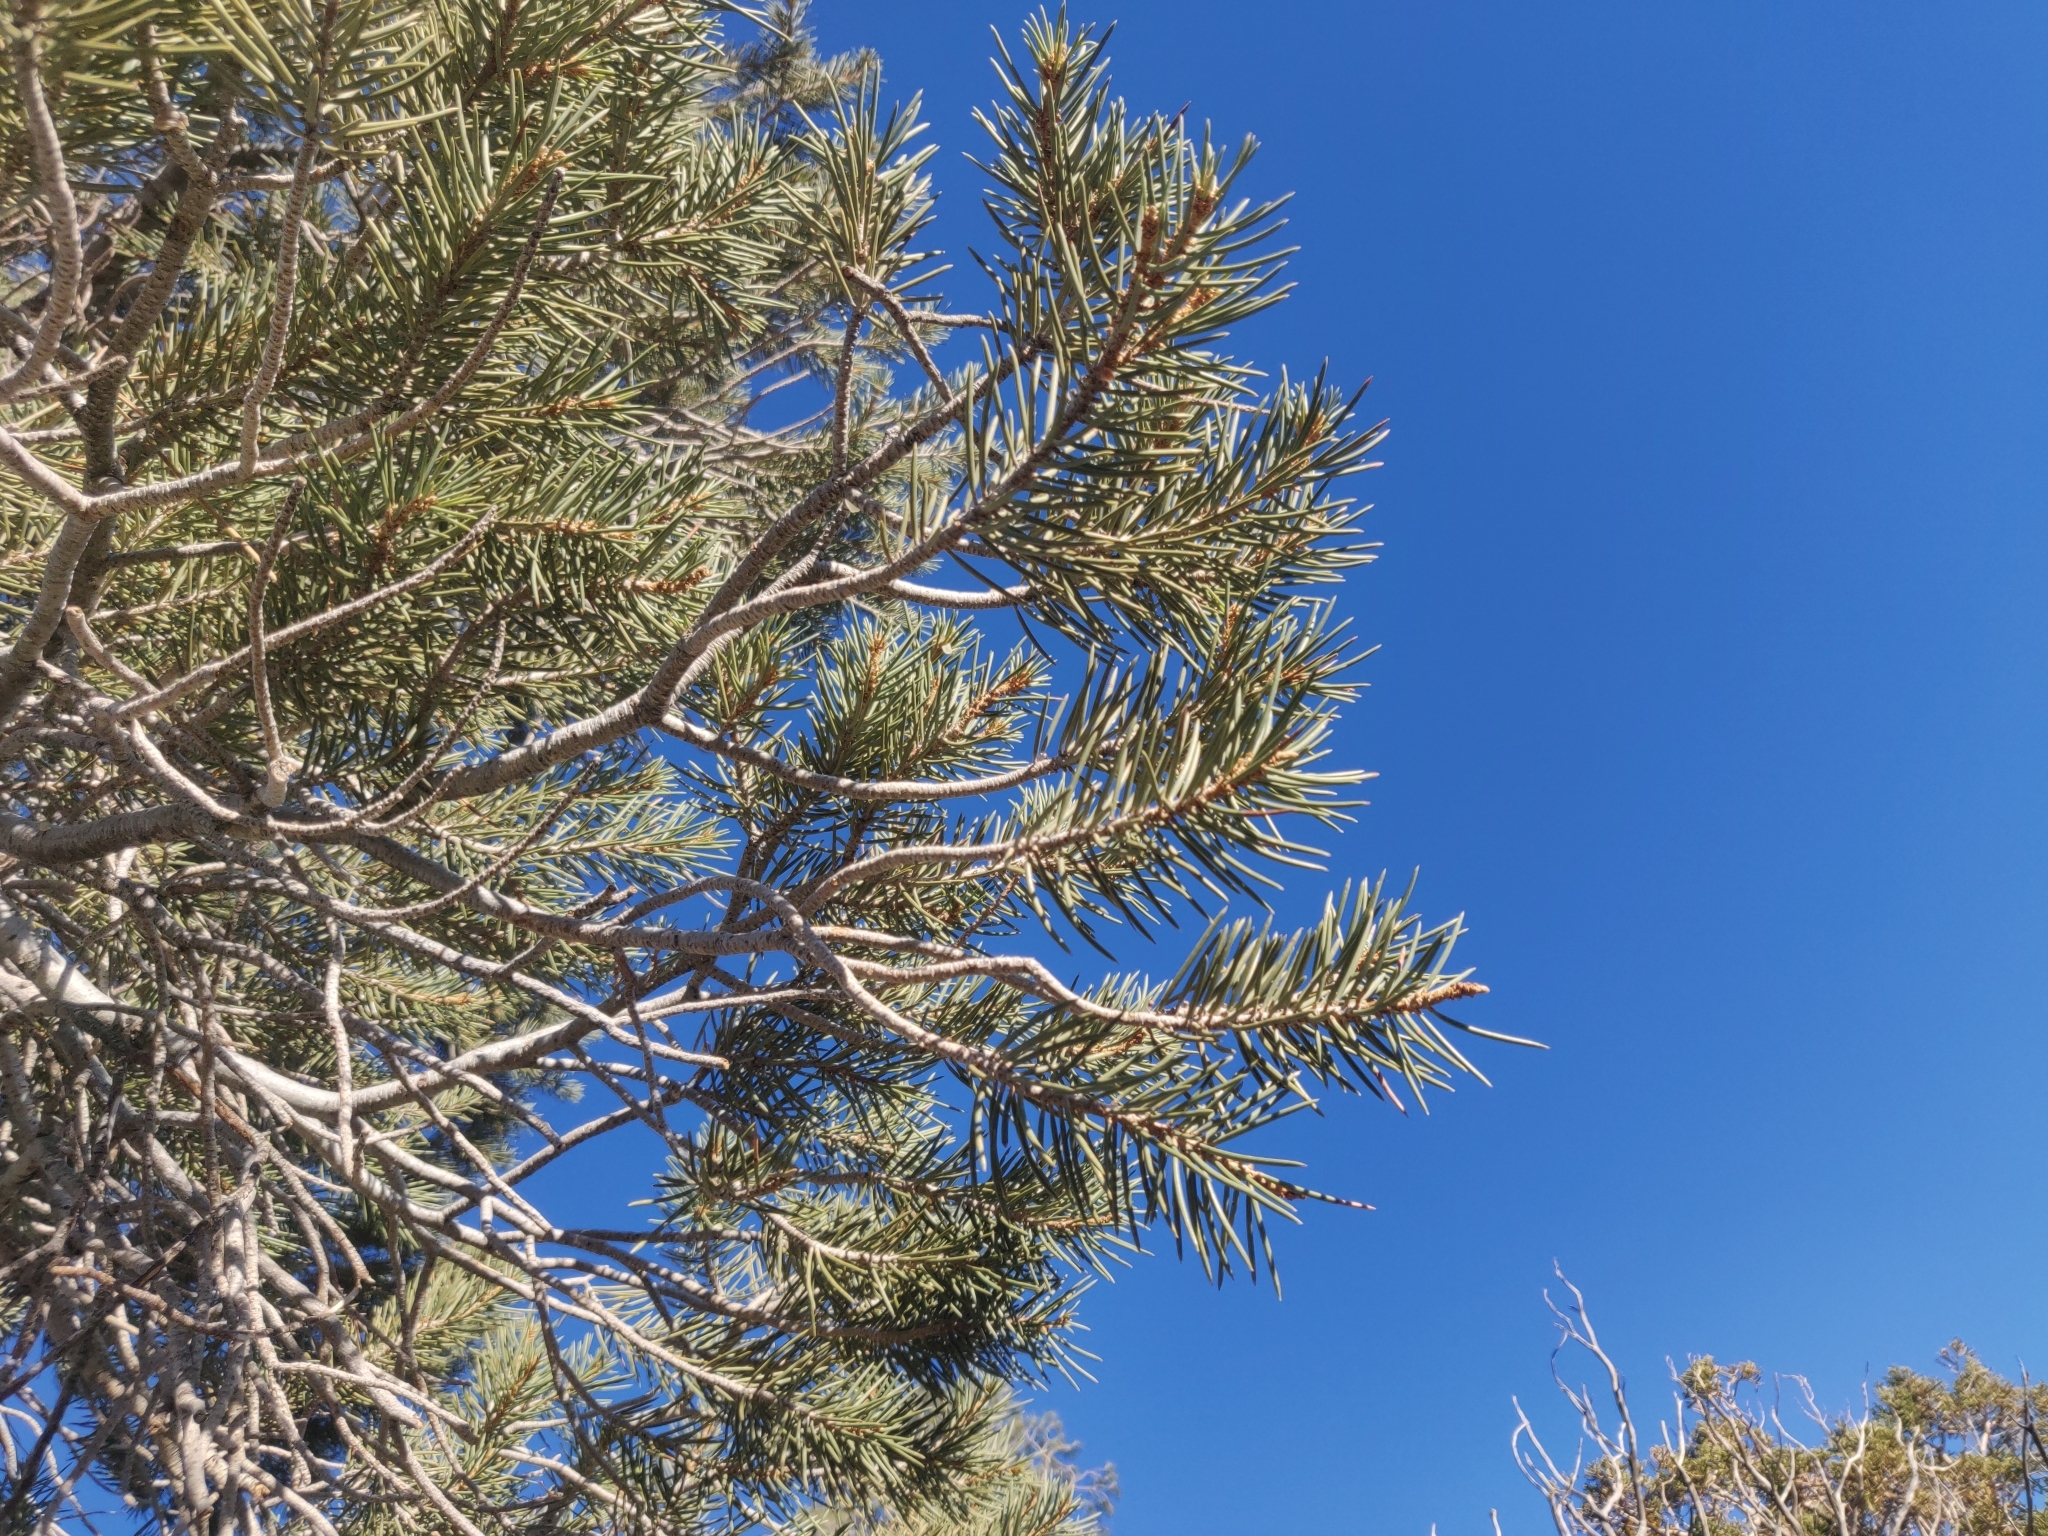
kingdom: Plantae
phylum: Tracheophyta
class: Pinopsida
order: Pinales
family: Pinaceae
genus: Pinus
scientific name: Pinus monophylla
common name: One-leaved nut pine
